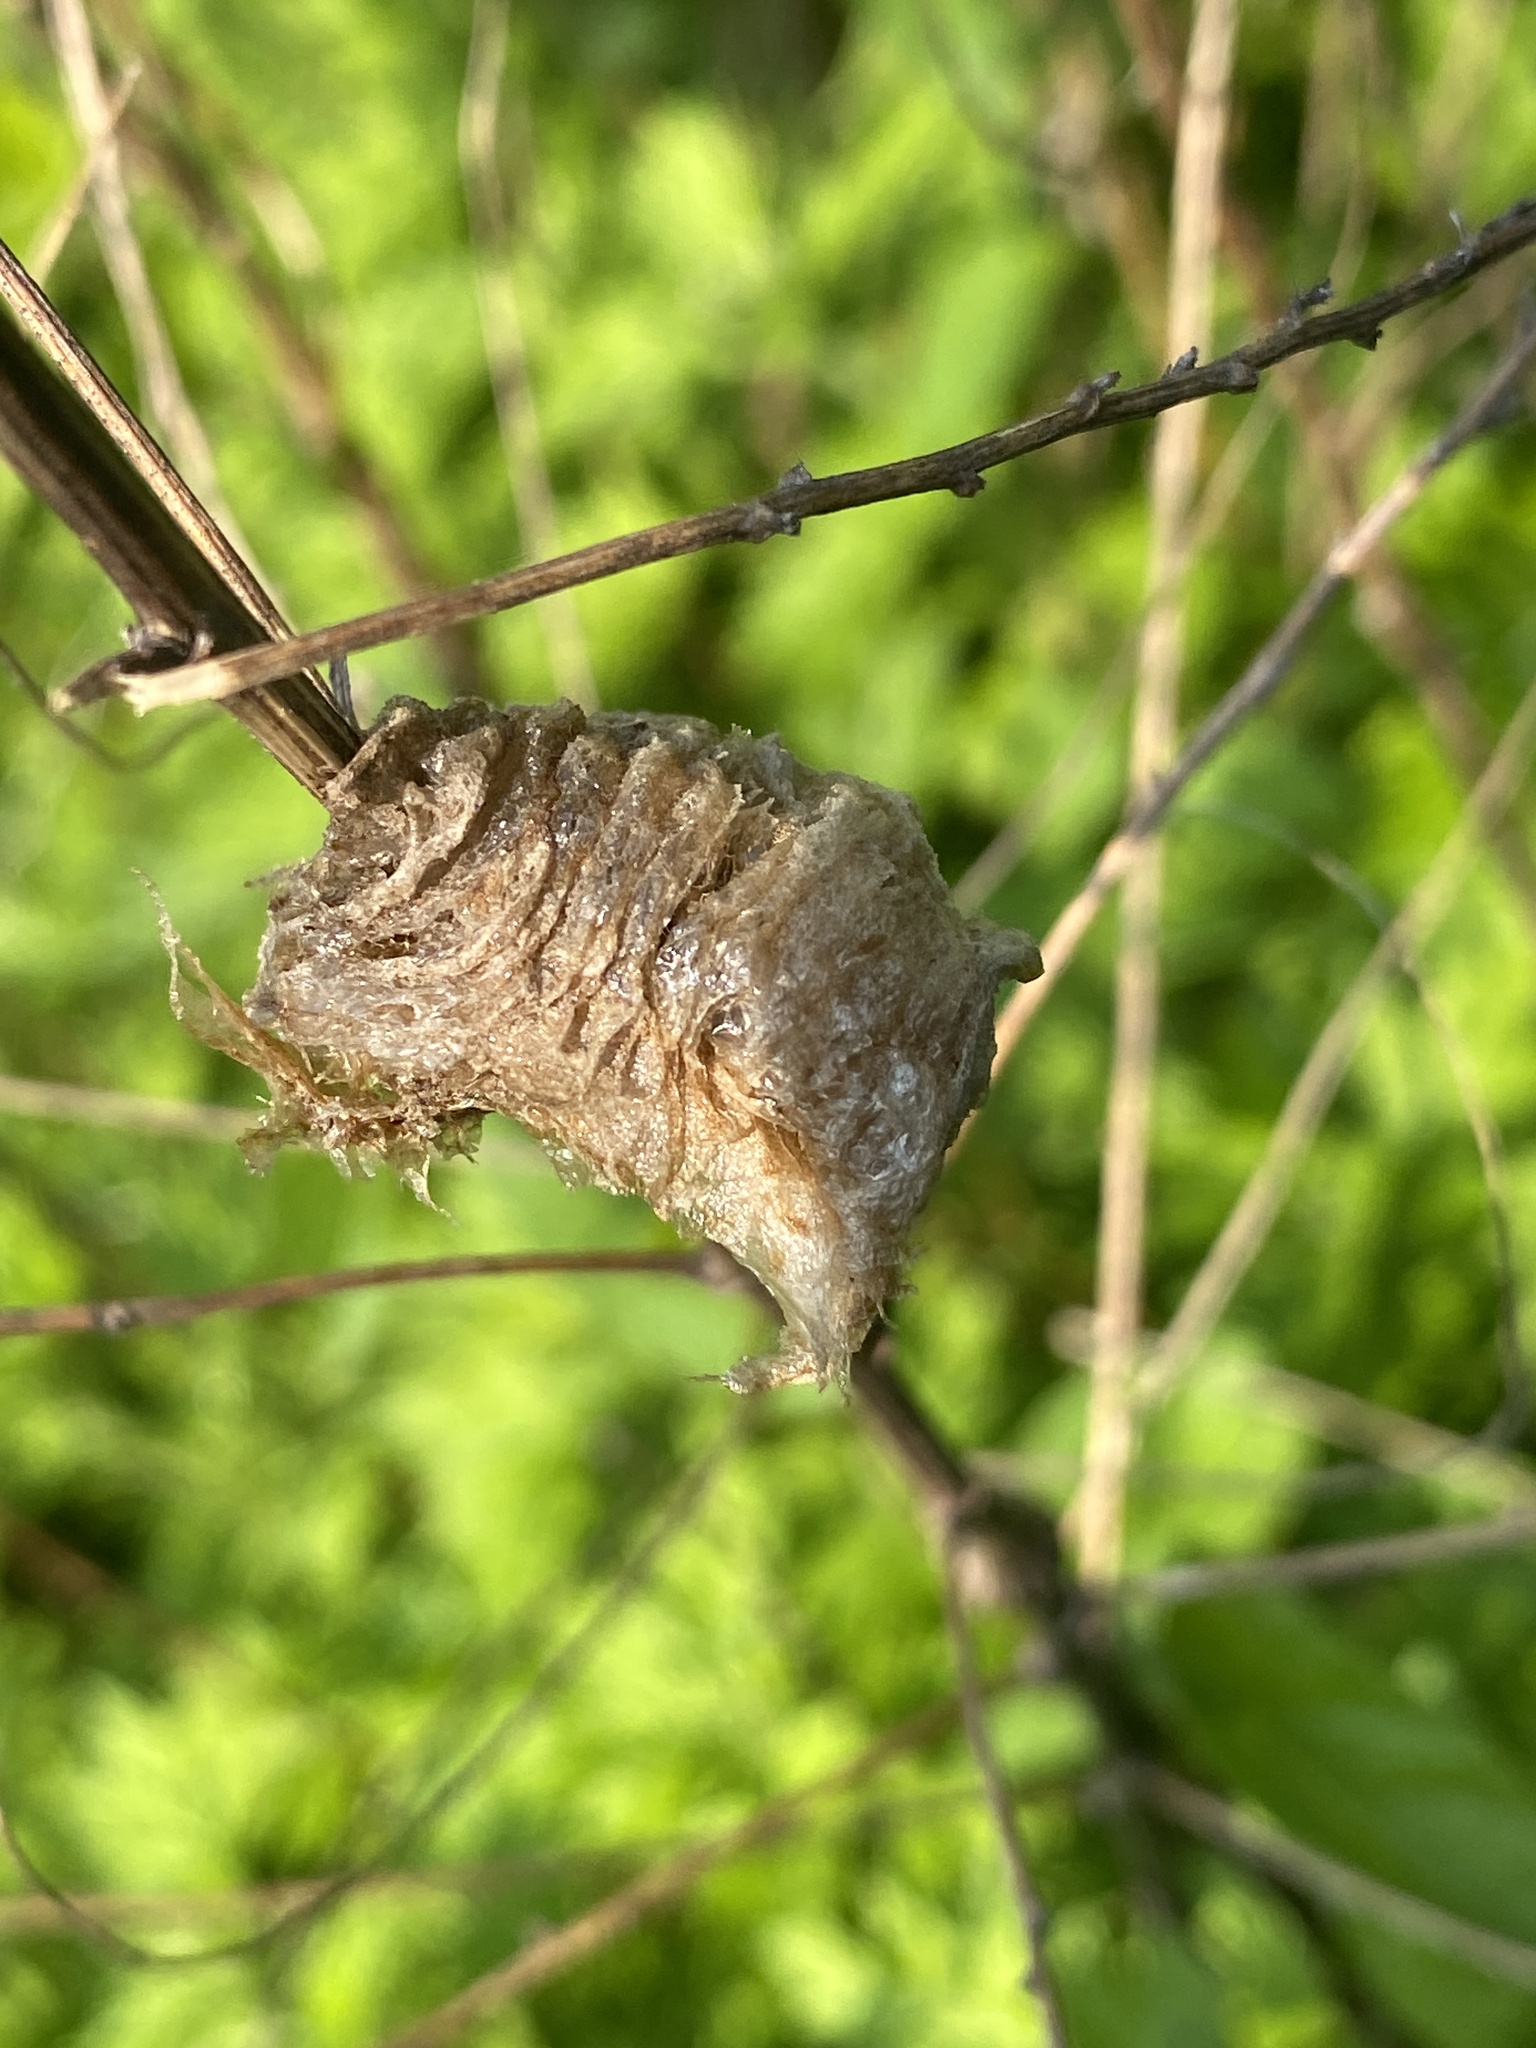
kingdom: Animalia
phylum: Arthropoda
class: Insecta
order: Mantodea
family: Mantidae
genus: Tenodera
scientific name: Tenodera sinensis
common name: Chinese mantis
